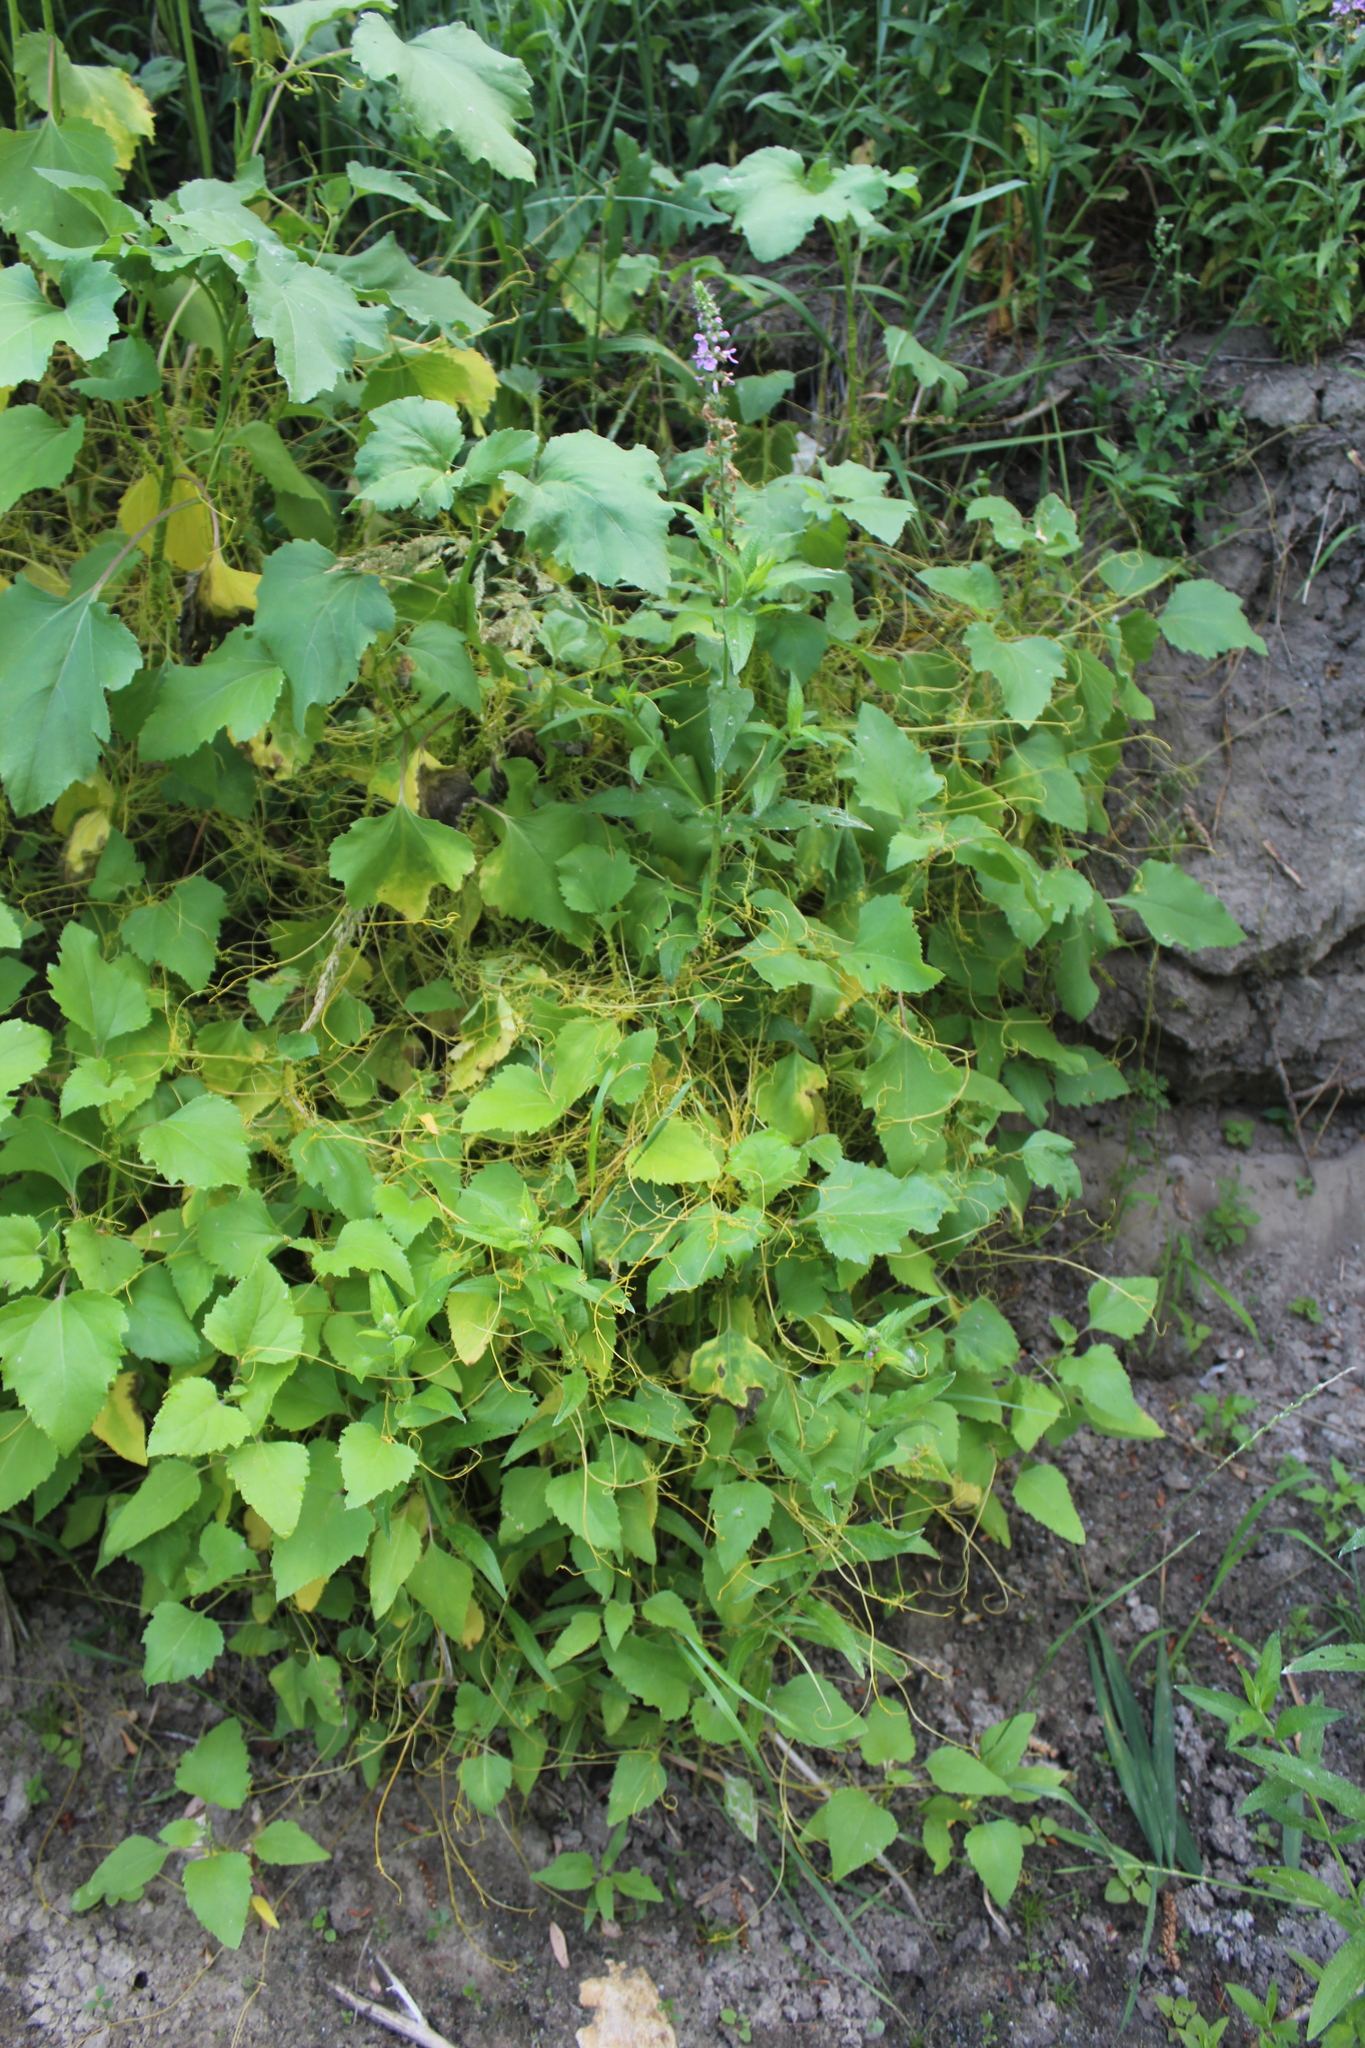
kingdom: Plantae
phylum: Tracheophyta
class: Magnoliopsida
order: Solanales
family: Convolvulaceae
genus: Cuscuta
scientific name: Cuscuta campestris
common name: Yellow dodder
